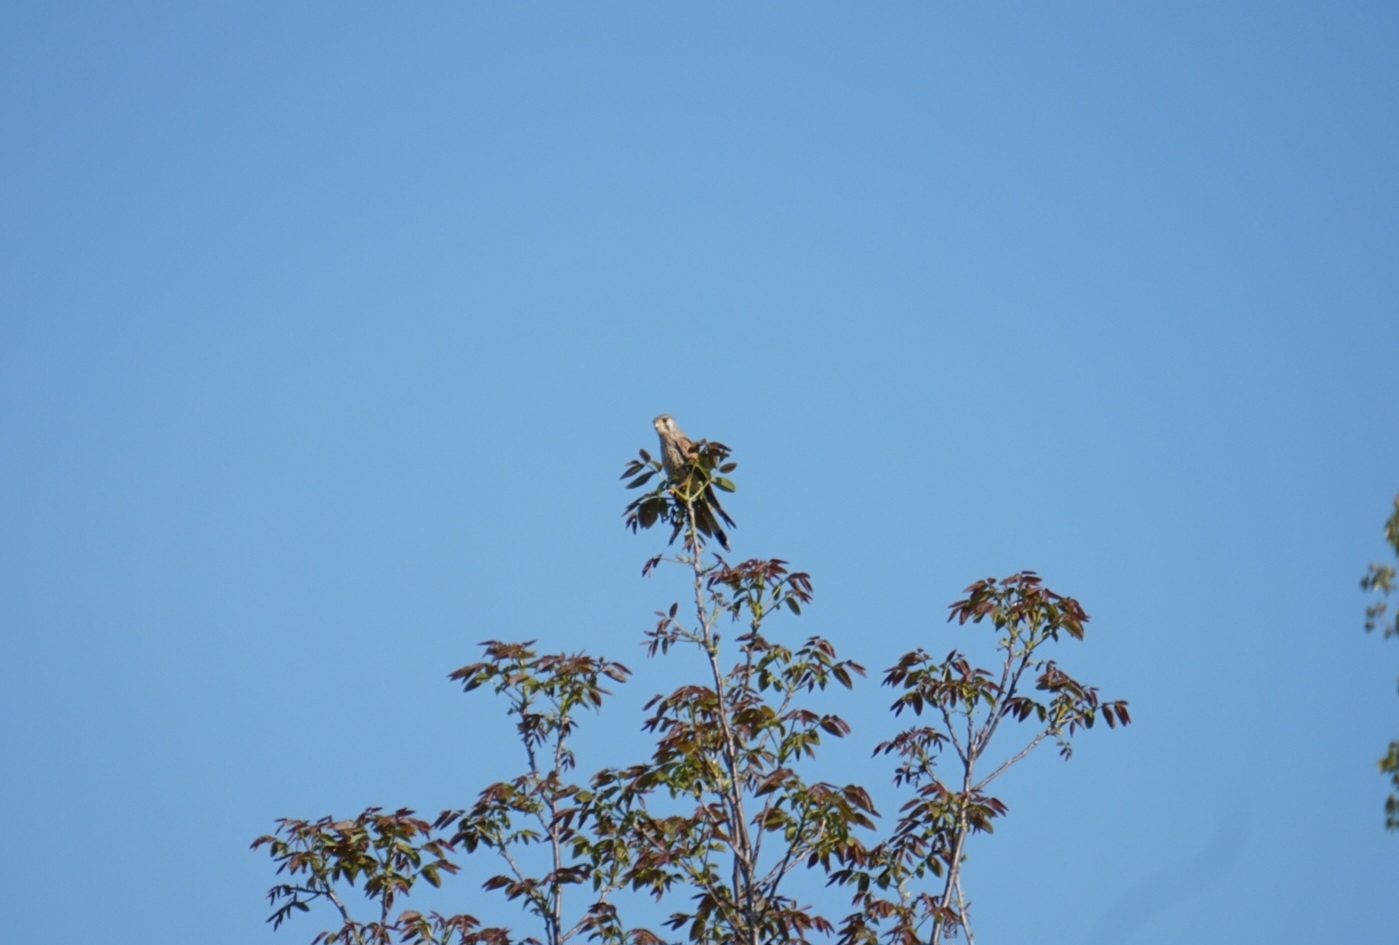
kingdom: Animalia
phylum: Chordata
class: Aves
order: Falconiformes
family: Falconidae
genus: Falco
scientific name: Falco tinnunculus
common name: Common kestrel
